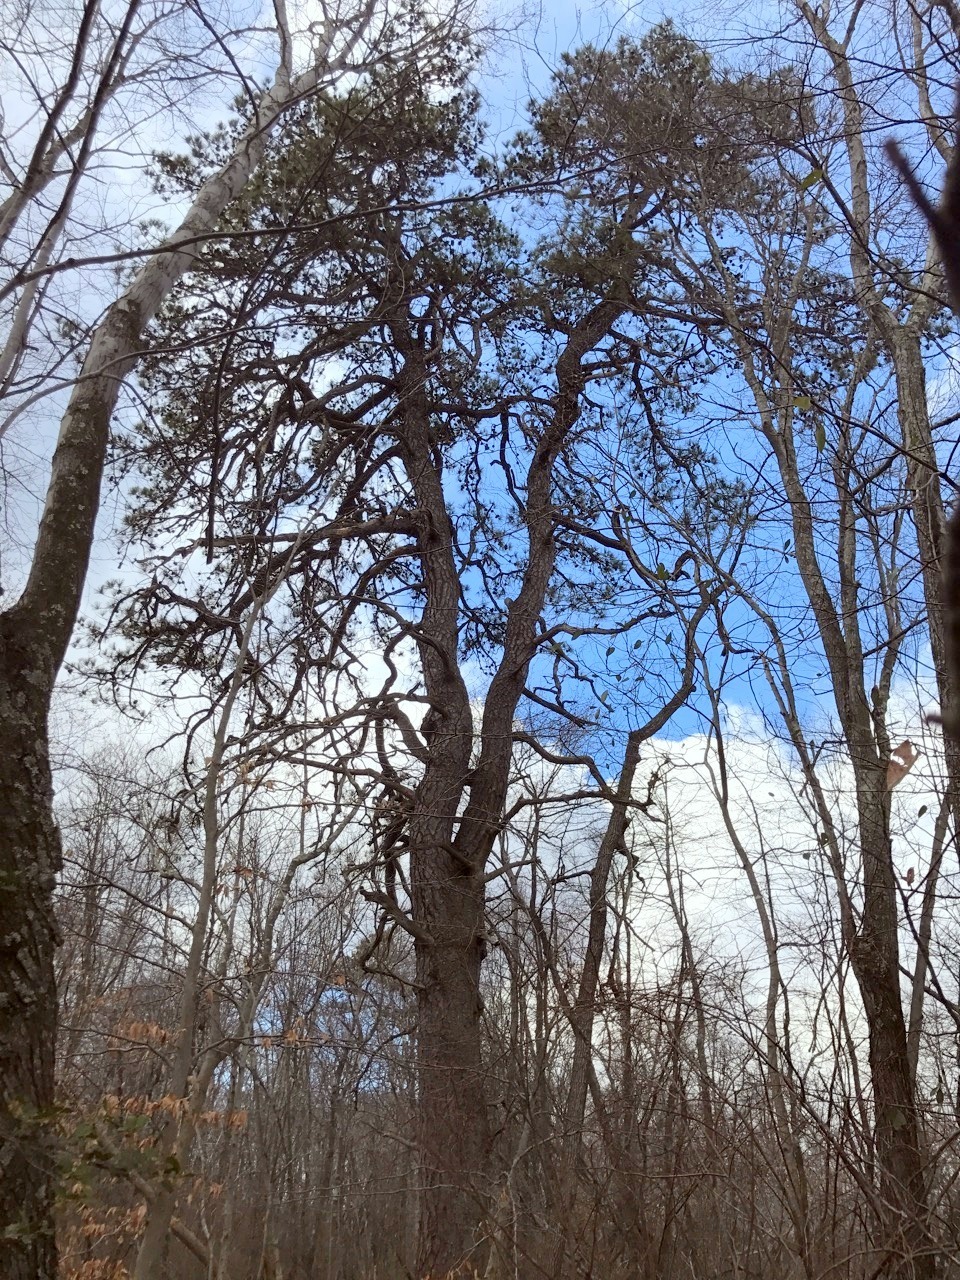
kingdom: Plantae
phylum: Tracheophyta
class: Pinopsida
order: Pinales
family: Pinaceae
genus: Pinus
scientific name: Pinus rigida
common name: Pitch pine
